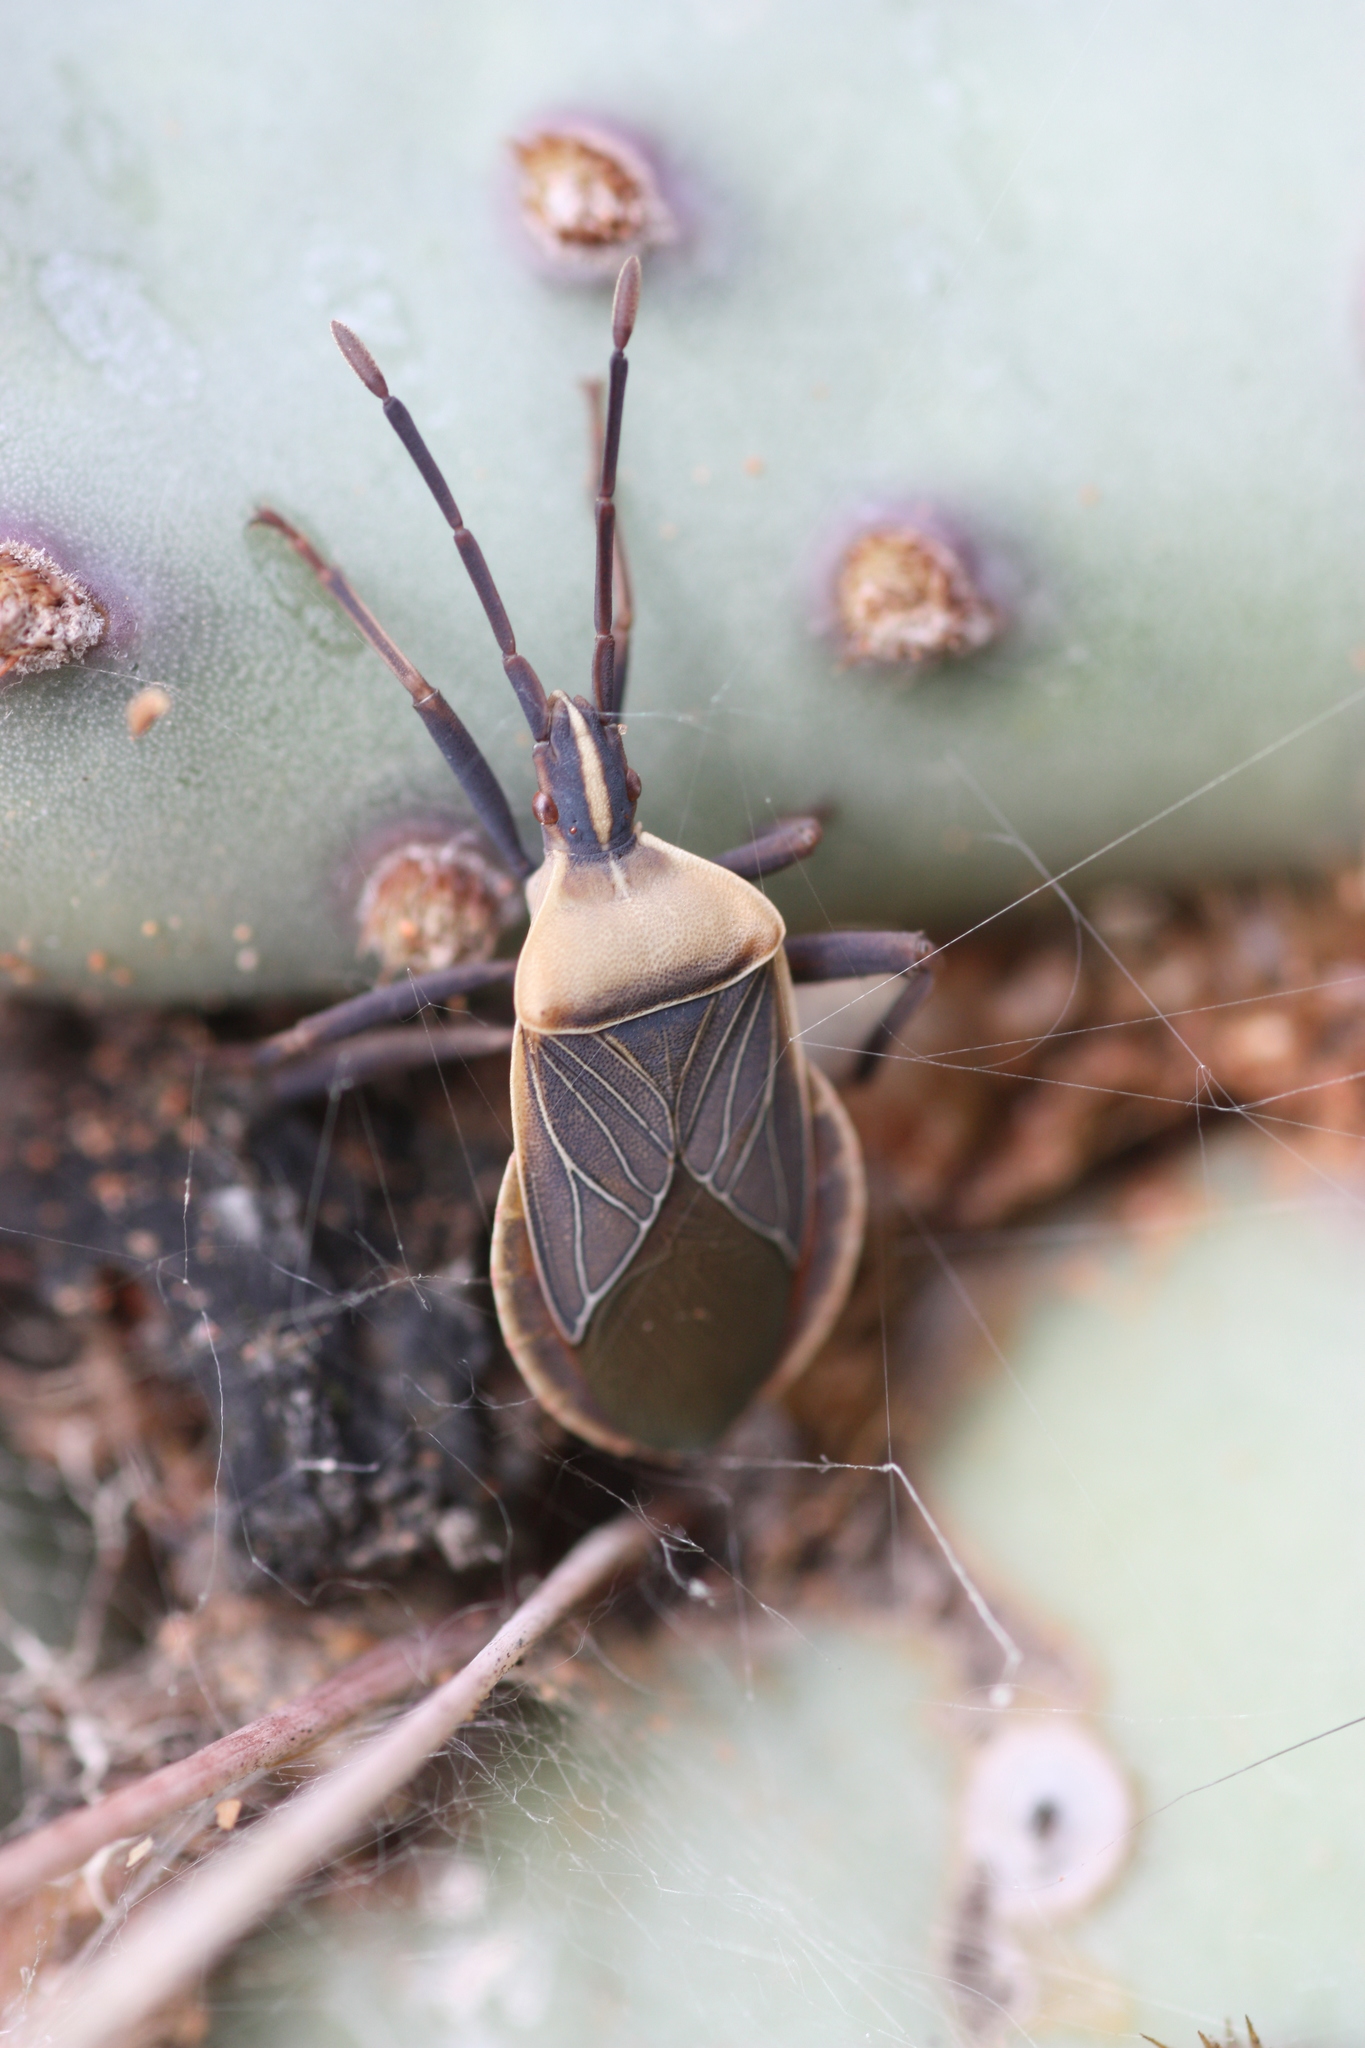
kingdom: Animalia
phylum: Arthropoda
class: Insecta
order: Hemiptera
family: Coreidae
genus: Chelinidea
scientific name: Chelinidea vittiger
